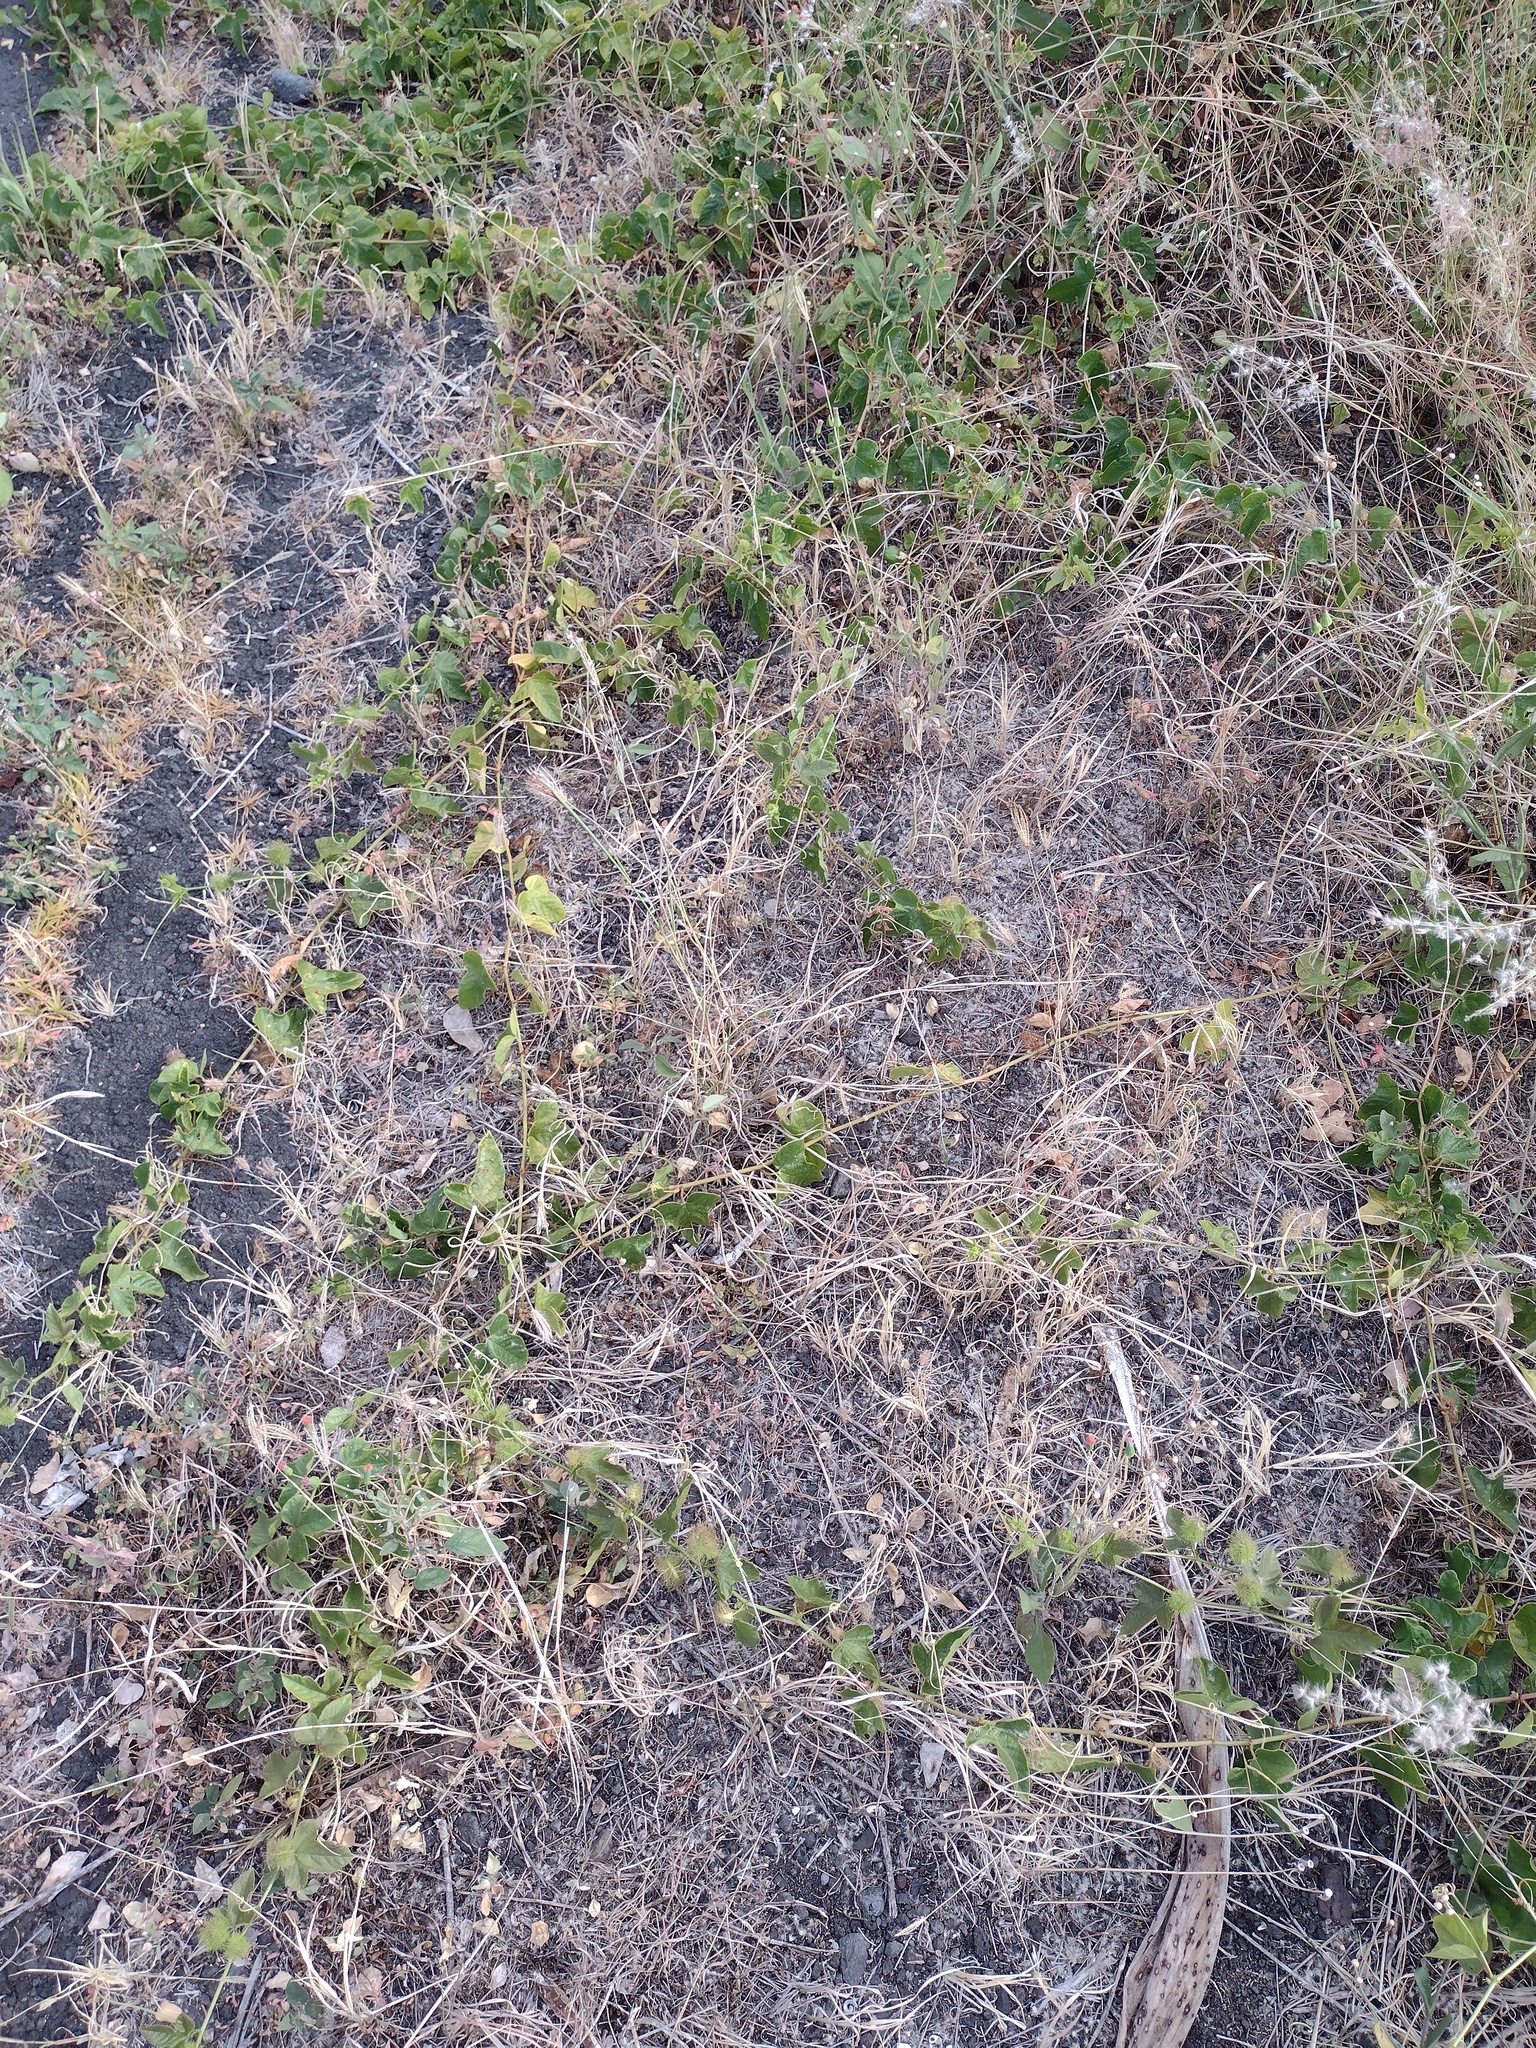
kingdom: Plantae
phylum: Tracheophyta
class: Magnoliopsida
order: Malpighiales
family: Passifloraceae
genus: Passiflora
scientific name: Passiflora foetida
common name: Fetid passionflower
